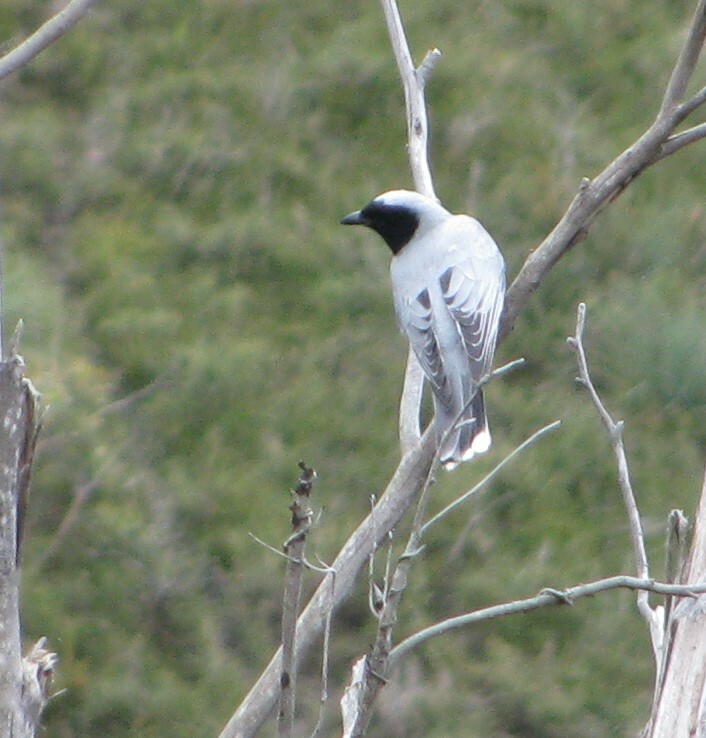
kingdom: Animalia
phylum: Chordata
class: Aves
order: Passeriformes
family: Campephagidae
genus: Coracina
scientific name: Coracina novaehollandiae
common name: Black-faced cuckooshrike
